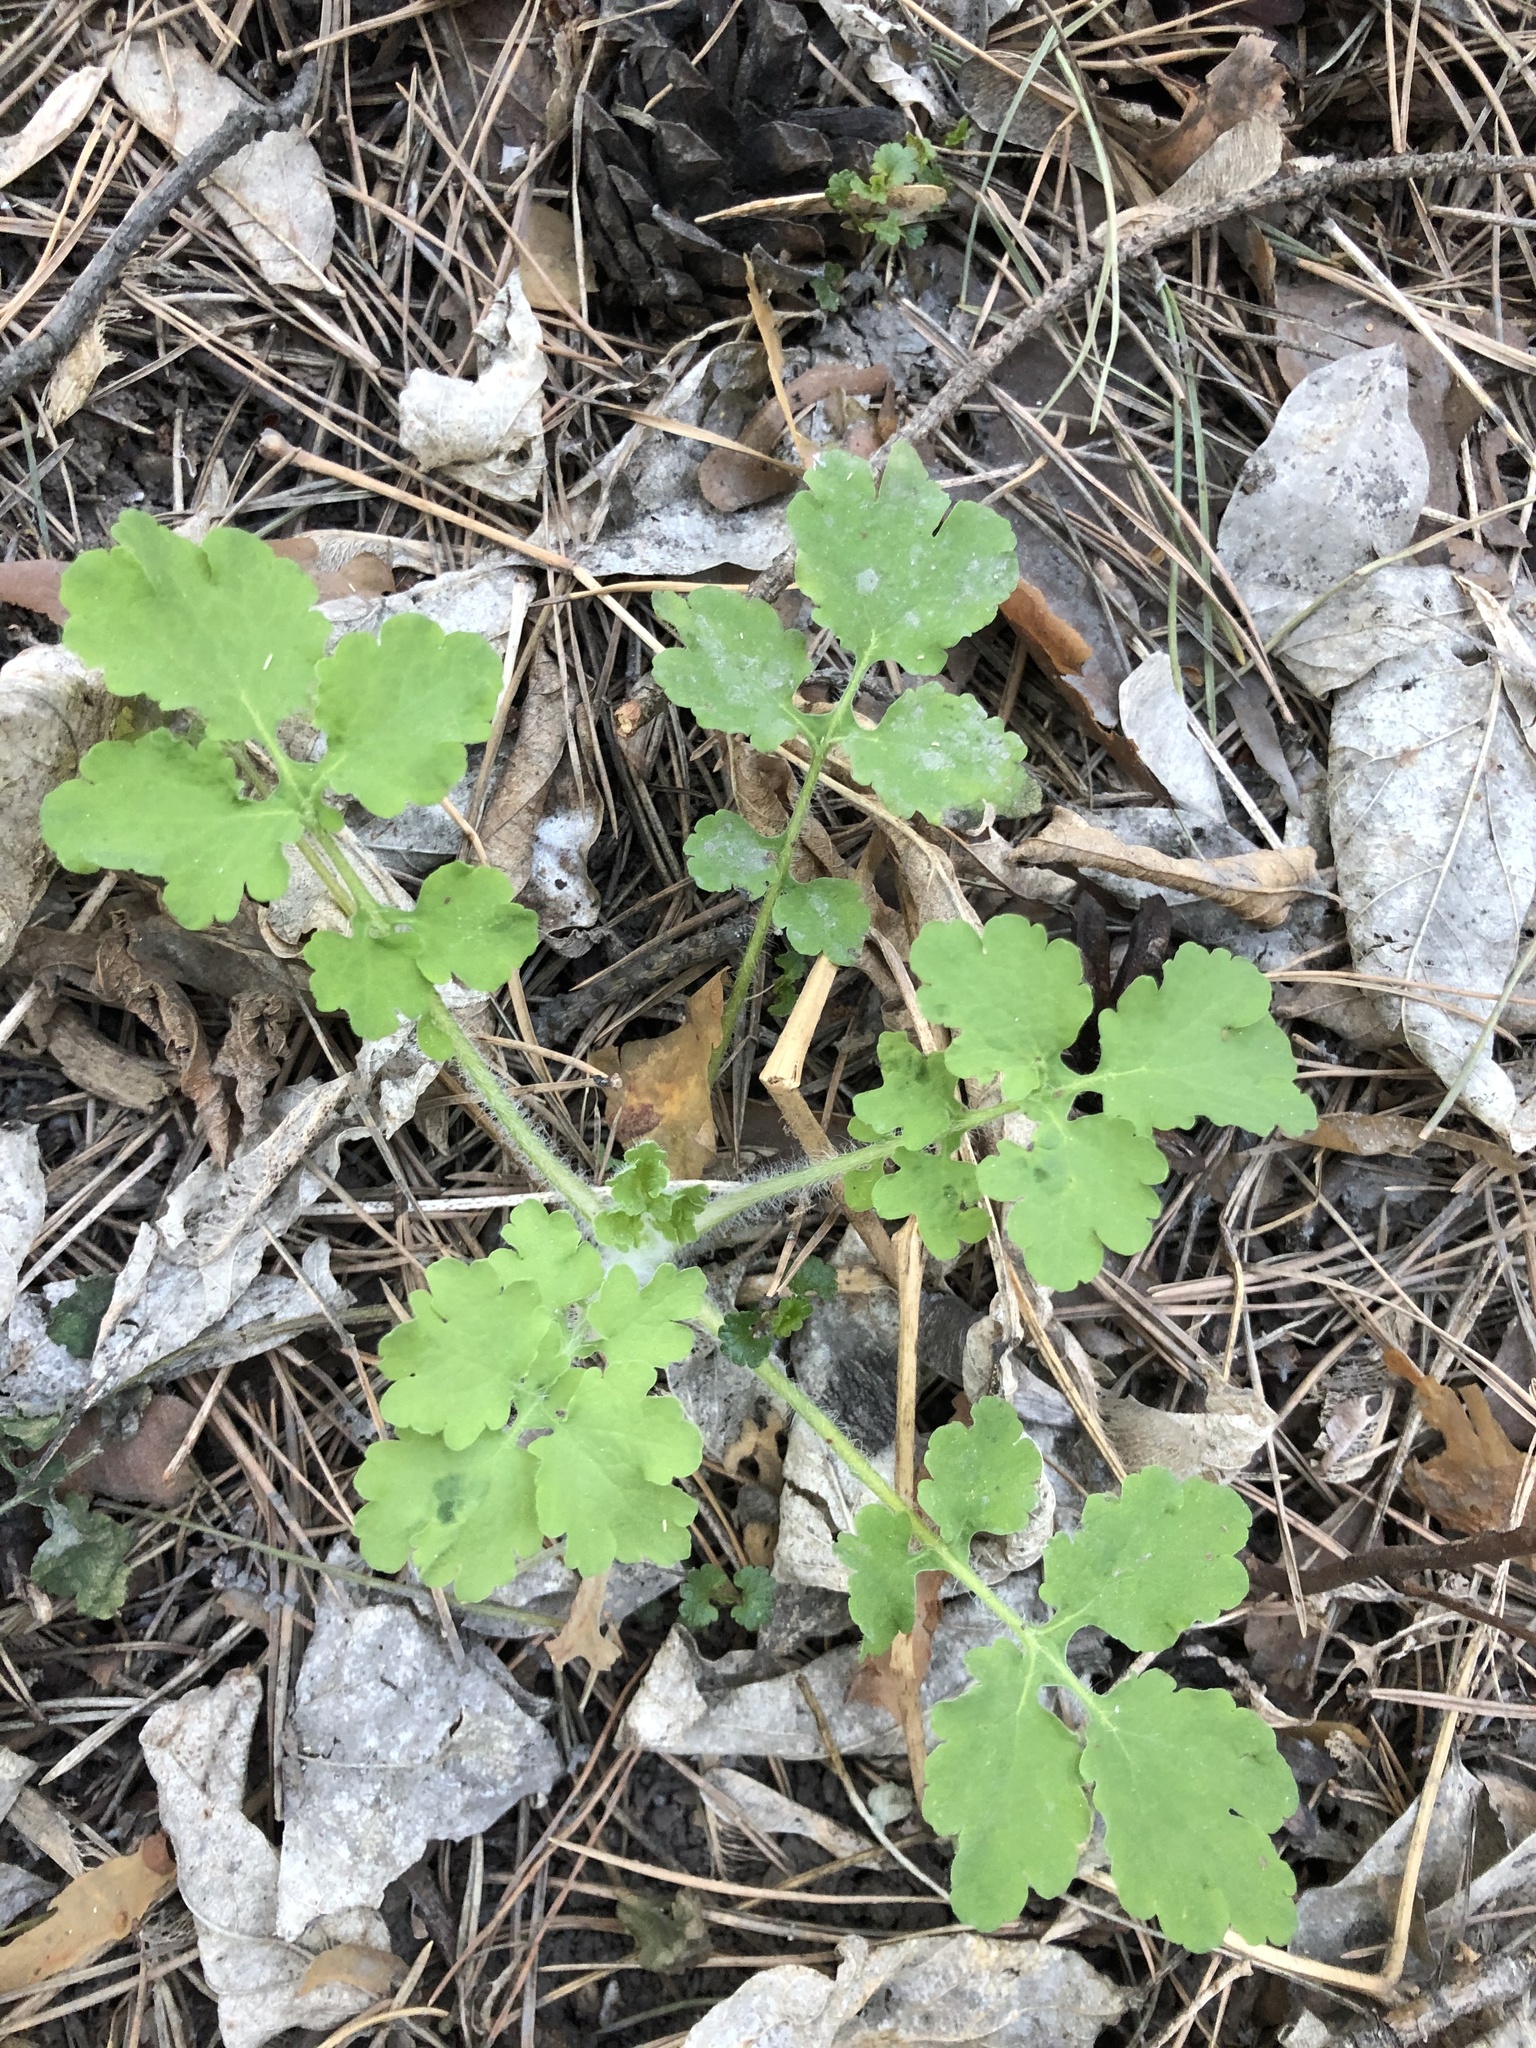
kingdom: Plantae
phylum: Tracheophyta
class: Magnoliopsida
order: Ranunculales
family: Papaveraceae
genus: Chelidonium
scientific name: Chelidonium majus
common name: Greater celandine
